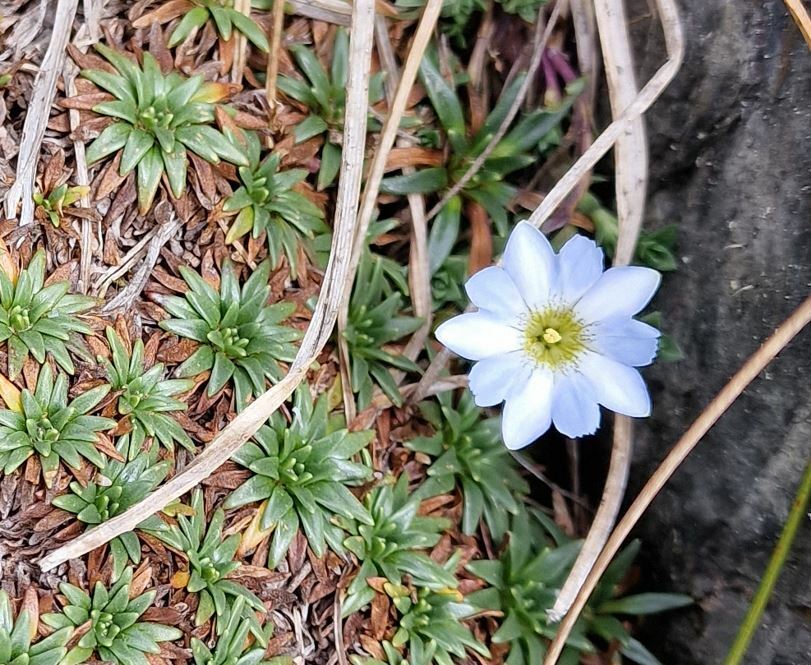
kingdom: Plantae
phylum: Tracheophyta
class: Magnoliopsida
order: Gentianales
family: Gentianaceae
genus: Gentiana
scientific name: Gentiana sedifolia
